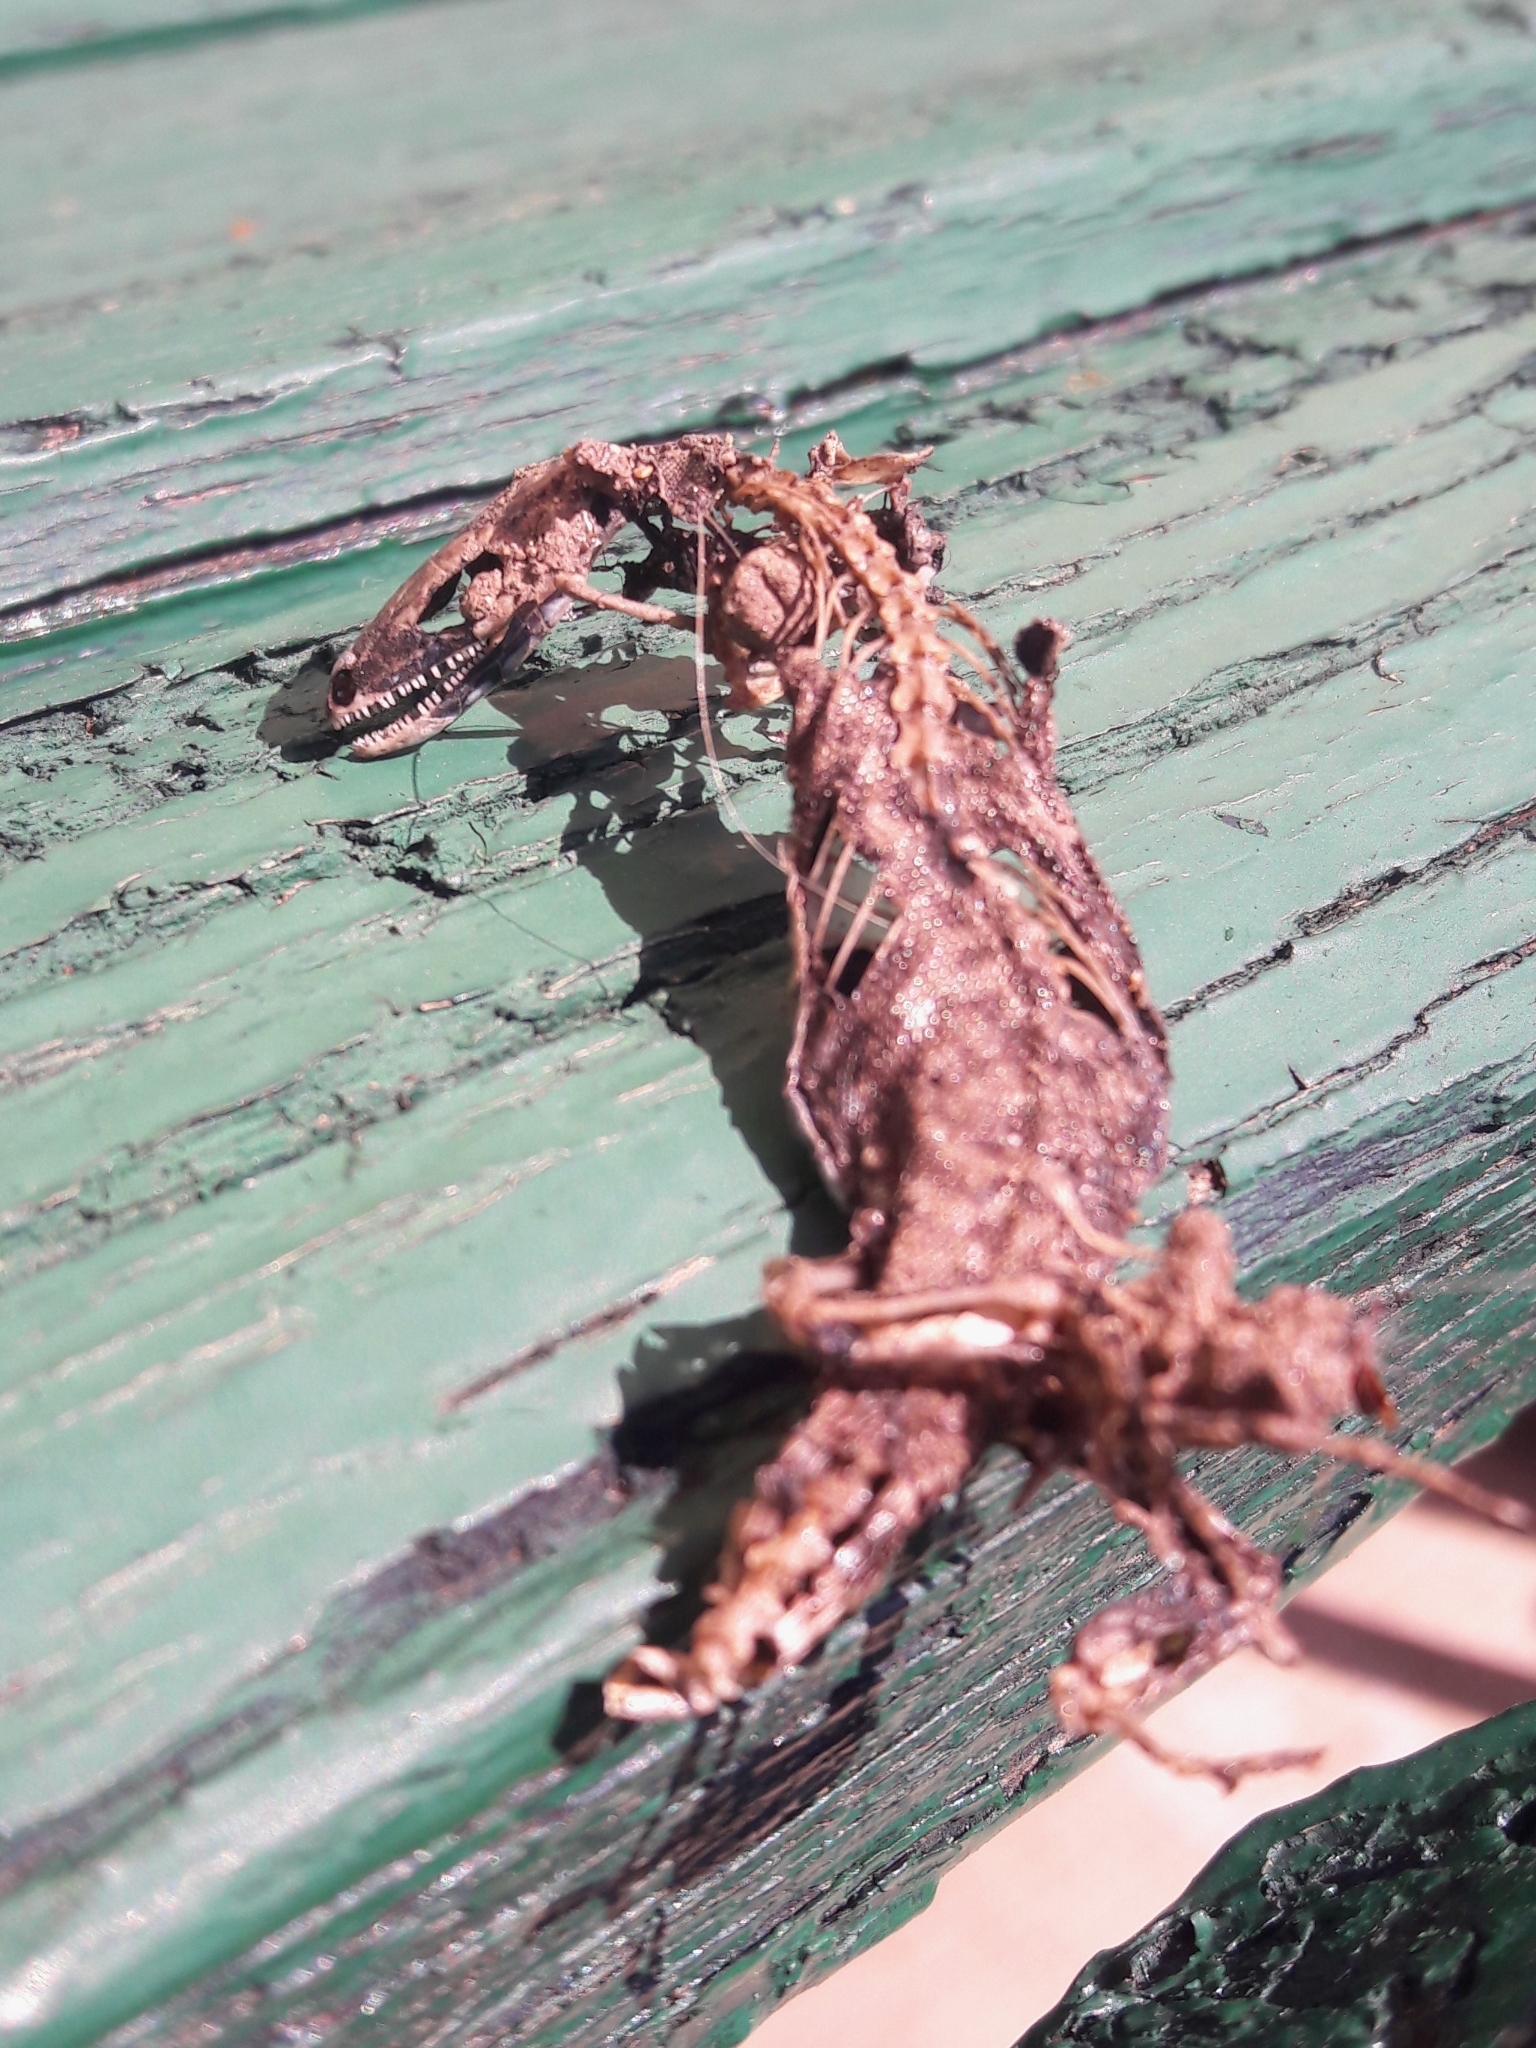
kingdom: Animalia
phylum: Chordata
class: Squamata
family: Lacertidae
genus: Podarcis
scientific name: Podarcis muralis
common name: Common wall lizard
